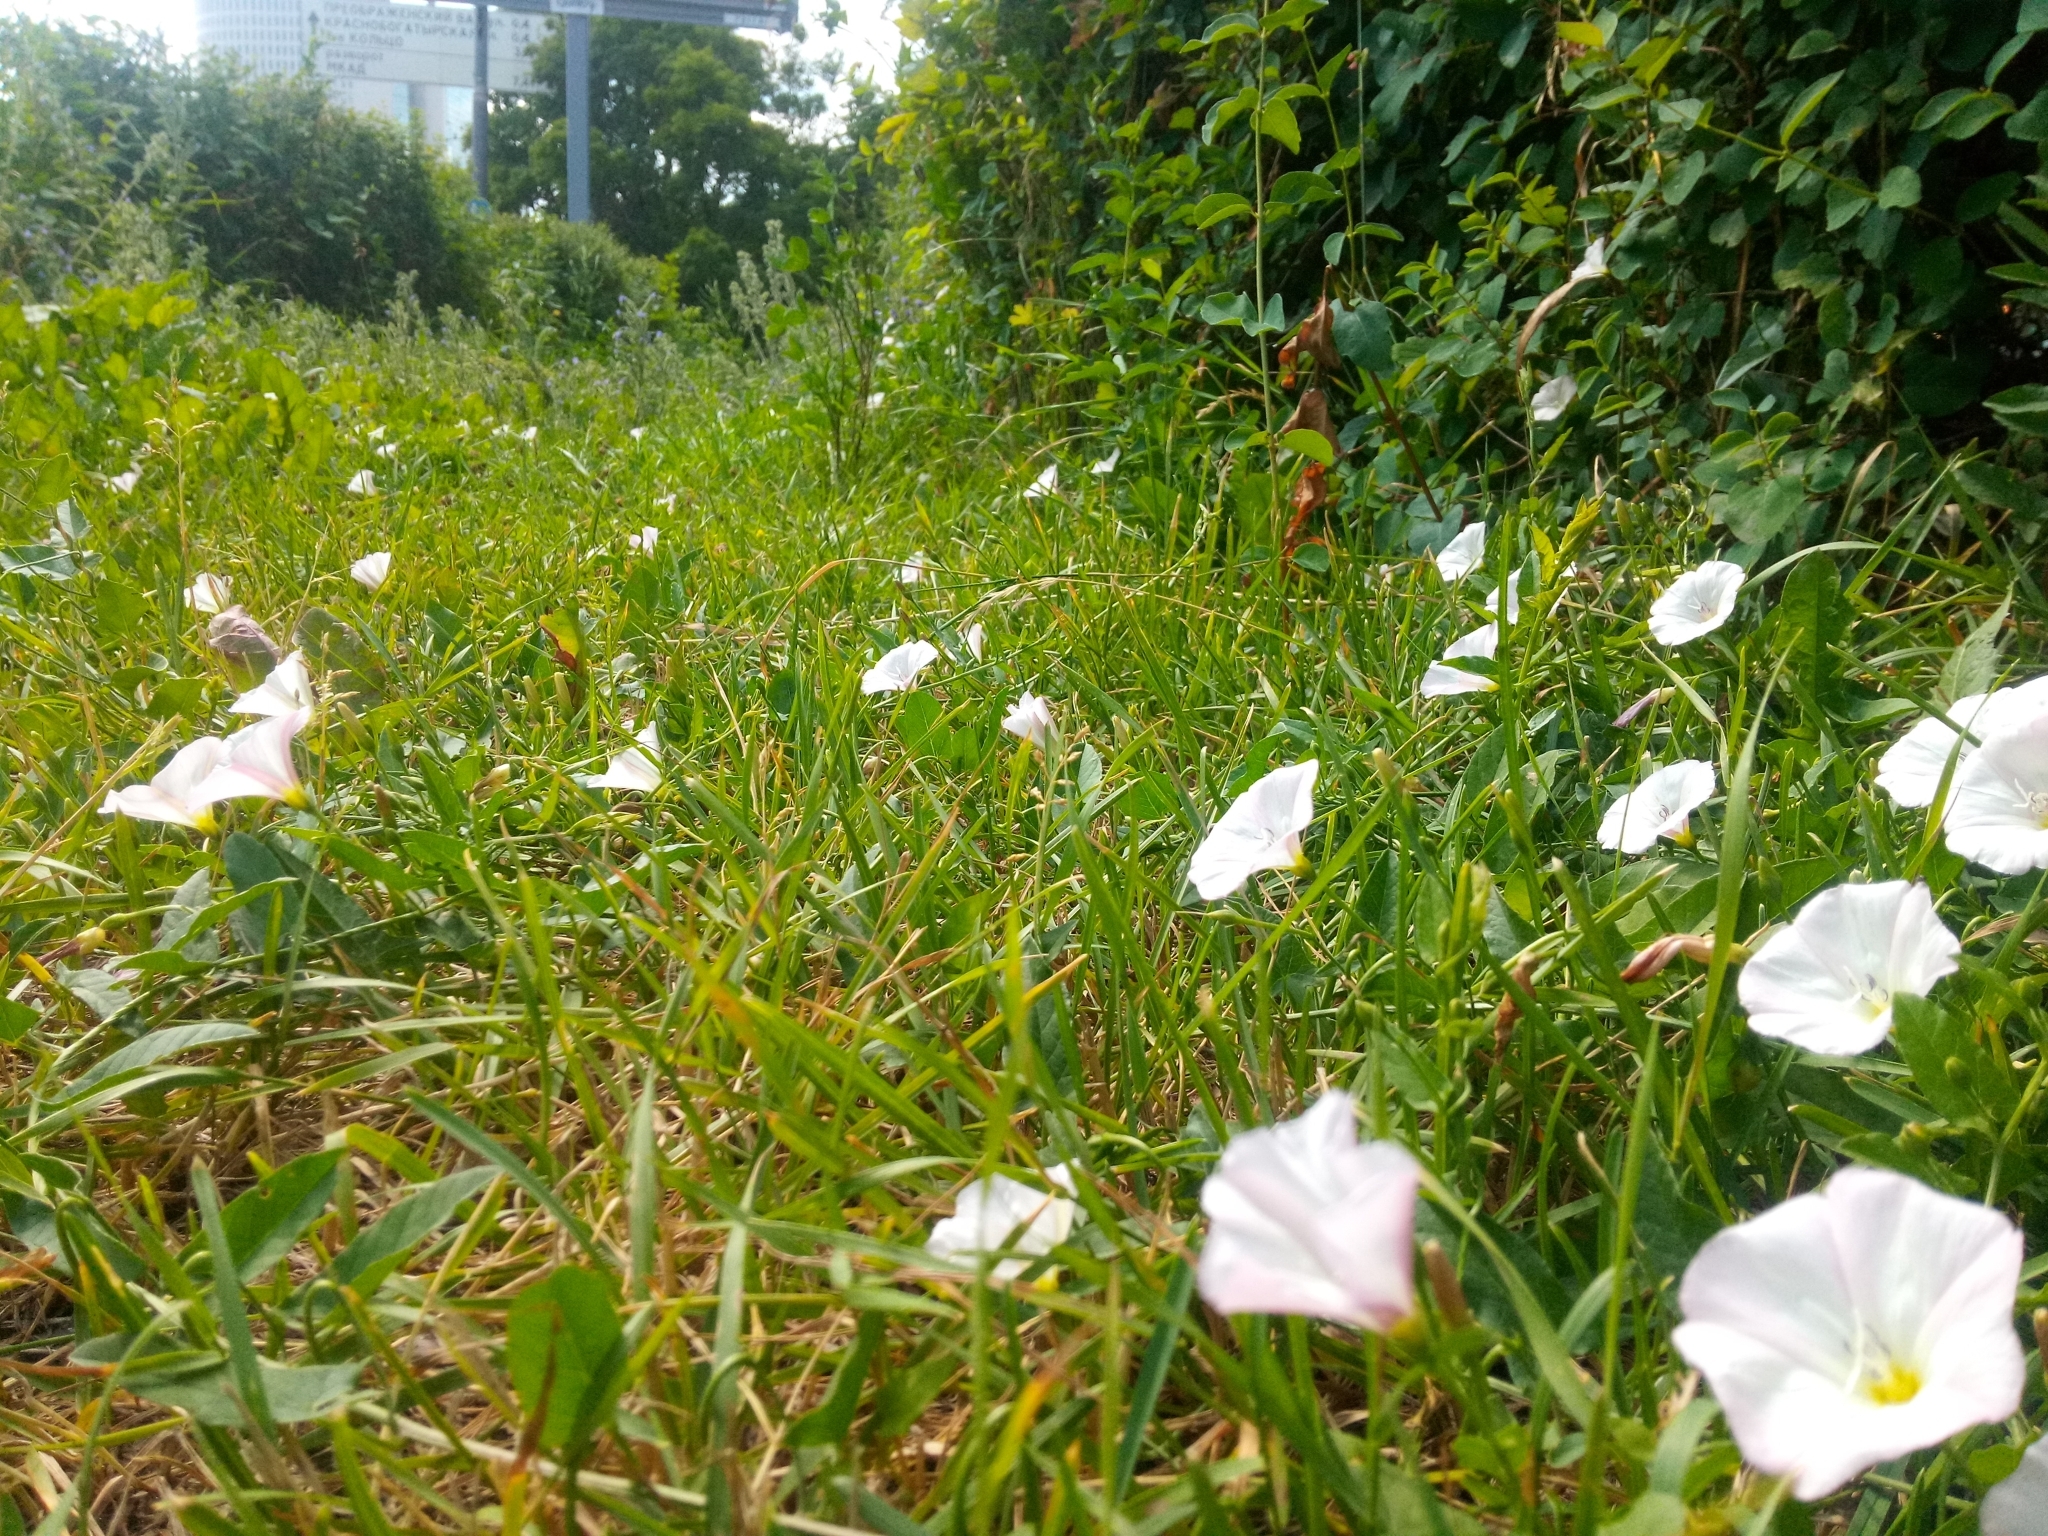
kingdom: Plantae
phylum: Tracheophyta
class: Magnoliopsida
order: Solanales
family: Convolvulaceae
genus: Convolvulus
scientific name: Convolvulus arvensis
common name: Field bindweed
